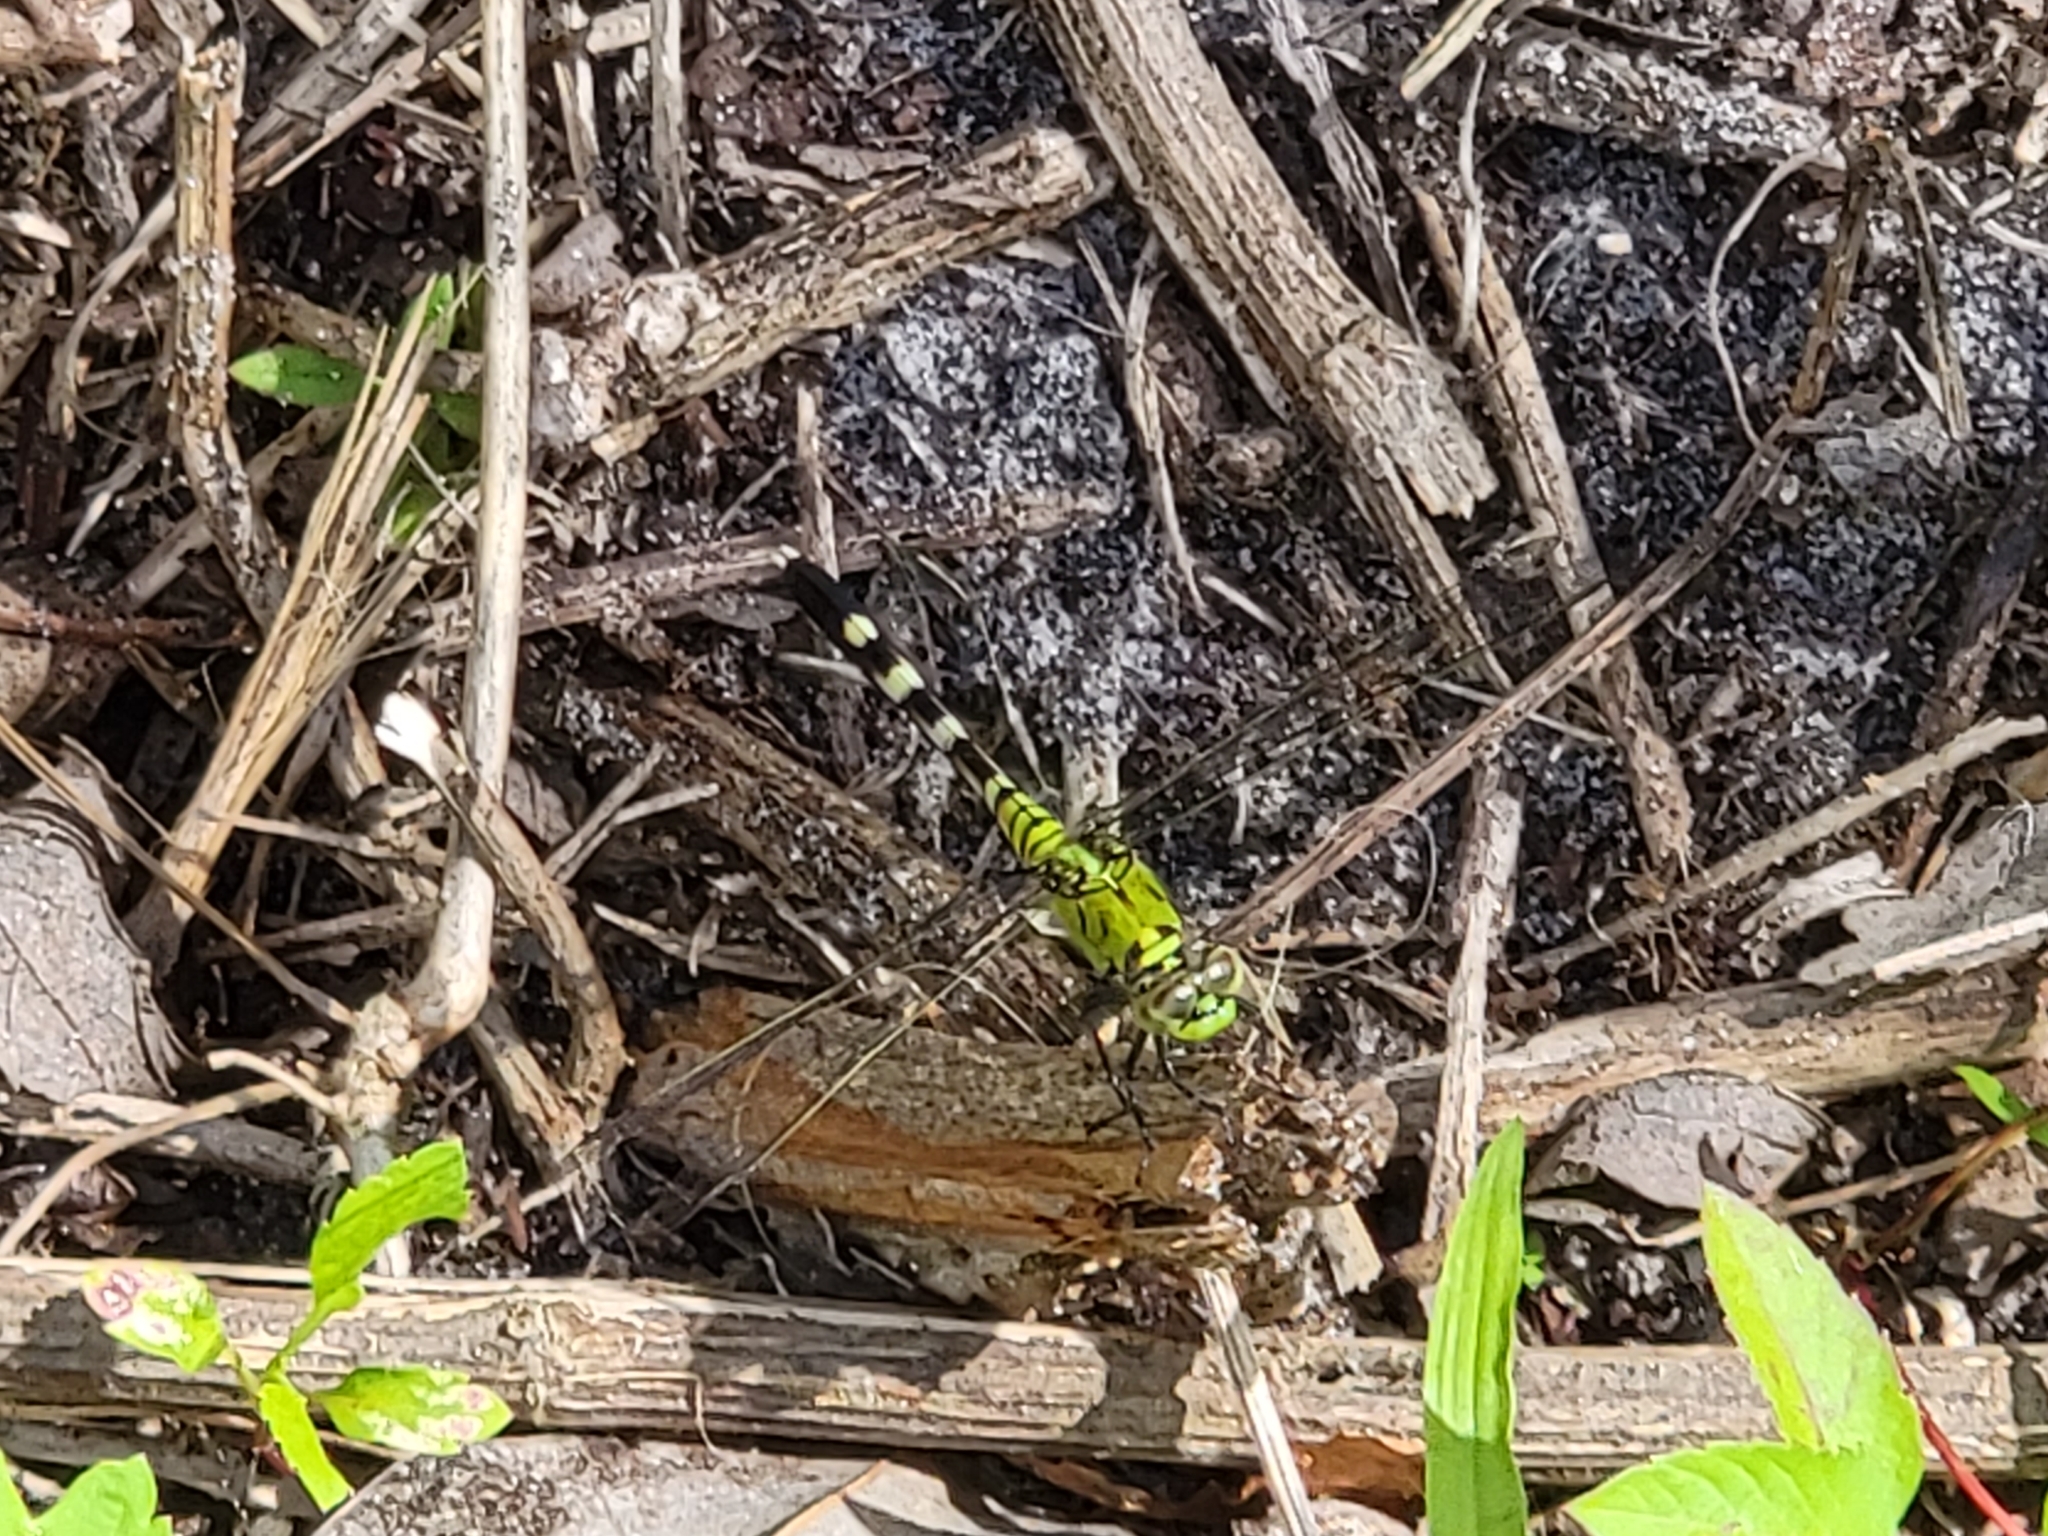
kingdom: Animalia
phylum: Arthropoda
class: Insecta
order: Odonata
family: Libellulidae
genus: Erythemis
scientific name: Erythemis simplicicollis
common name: Eastern pondhawk
